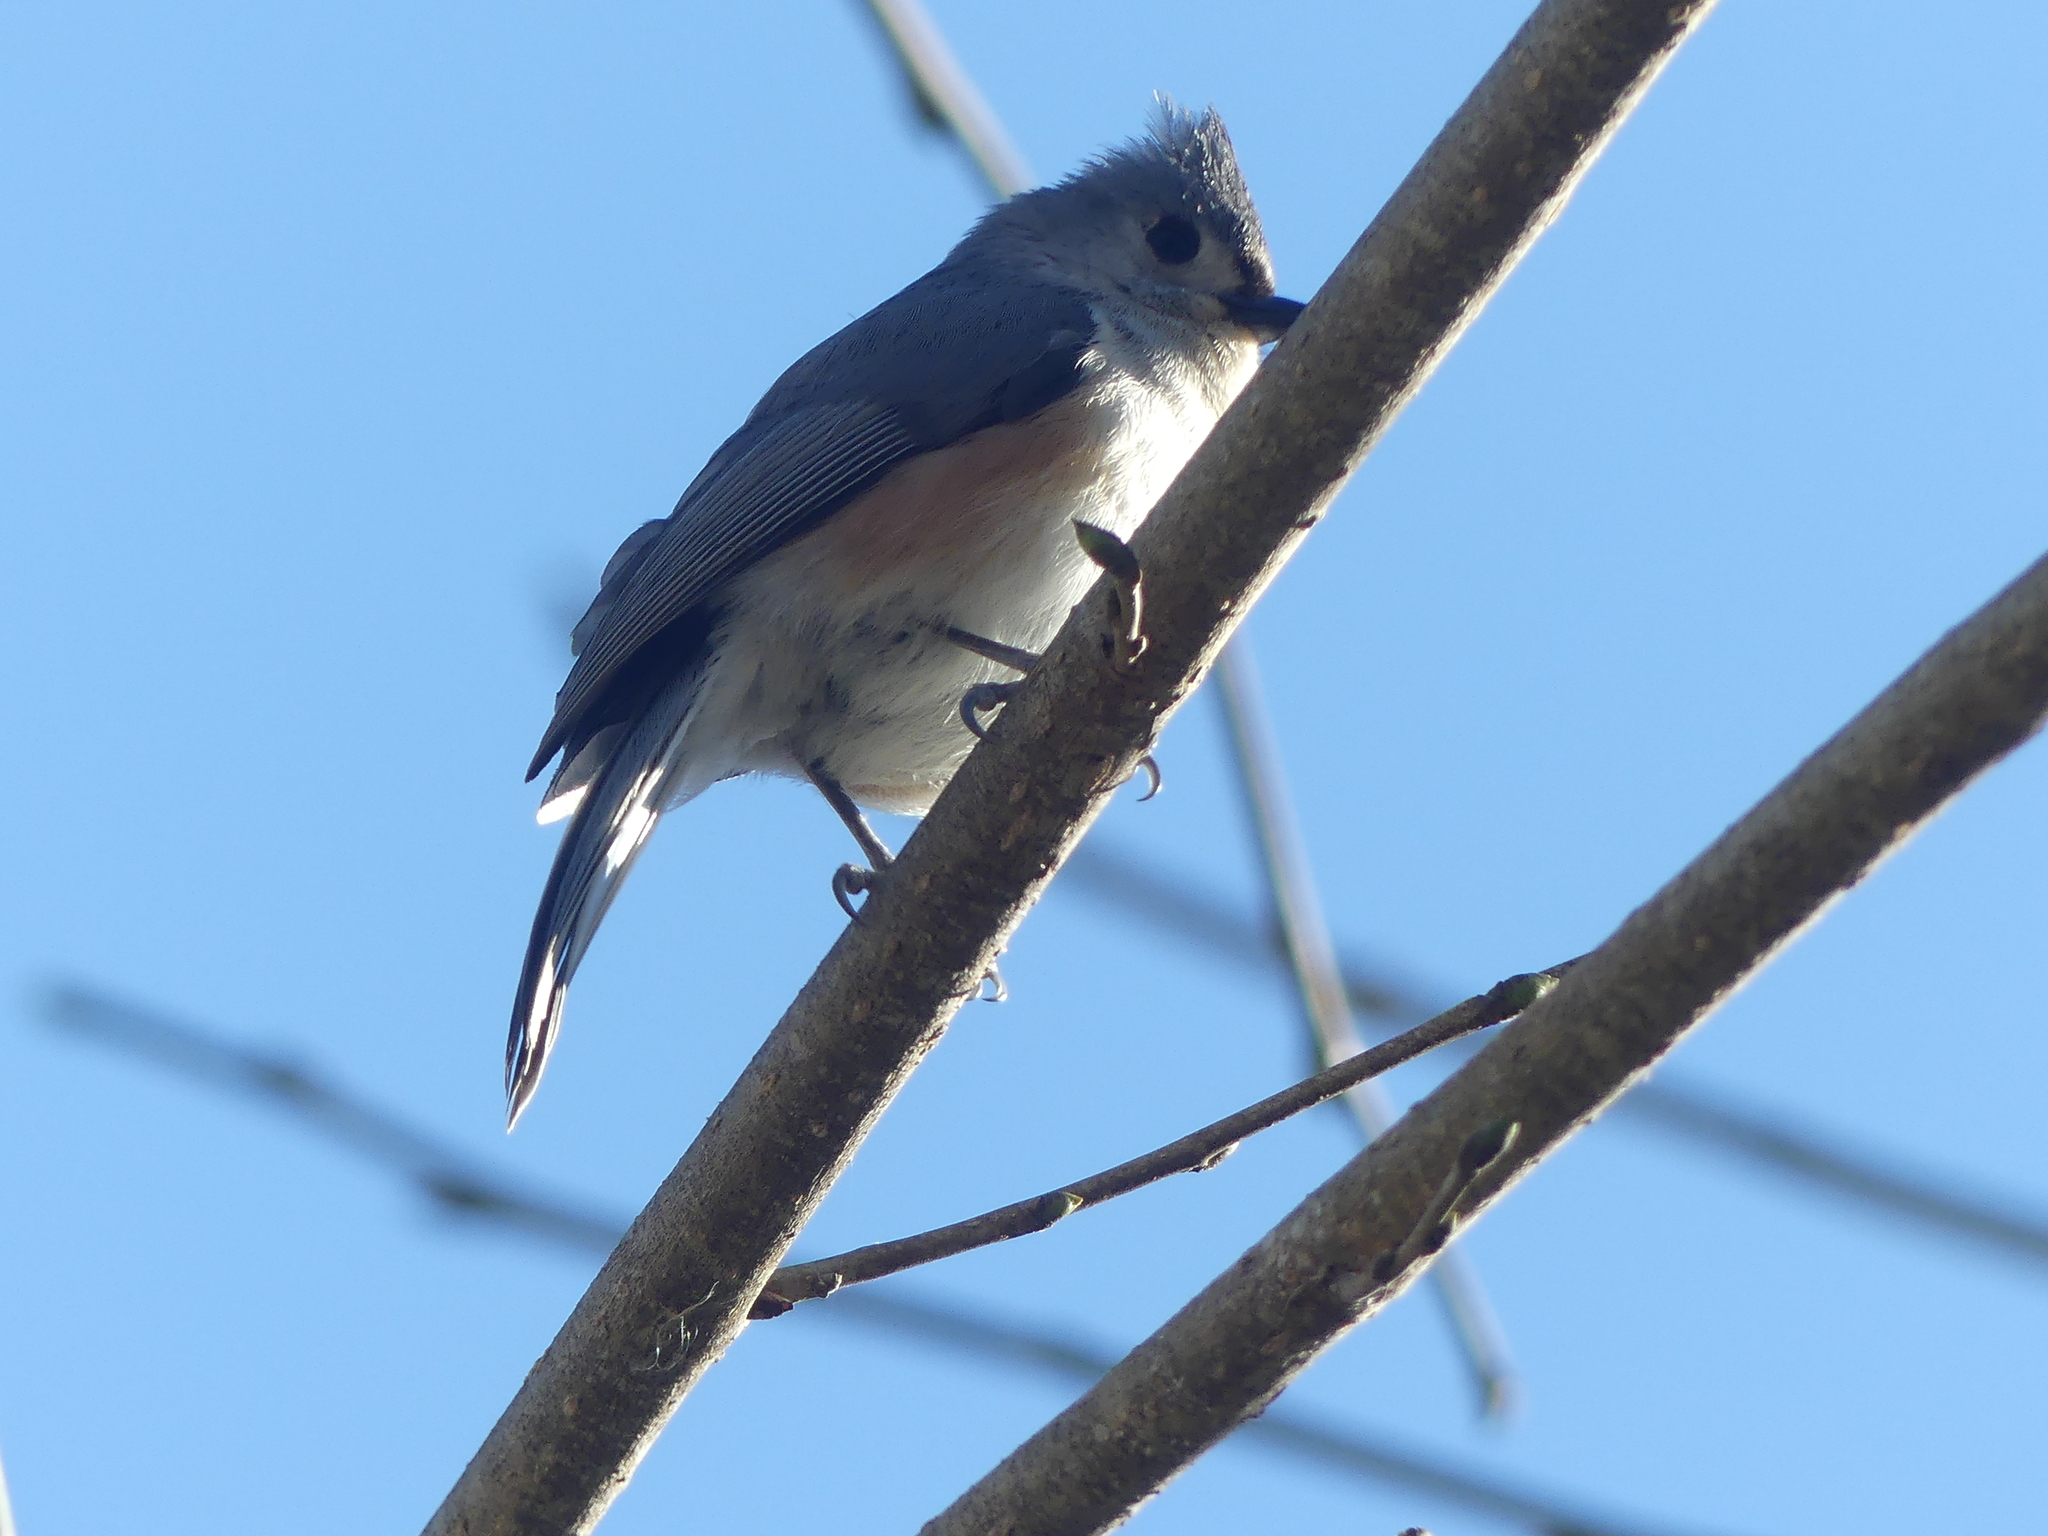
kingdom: Animalia
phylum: Chordata
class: Aves
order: Passeriformes
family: Paridae
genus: Baeolophus
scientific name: Baeolophus bicolor
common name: Tufted titmouse
